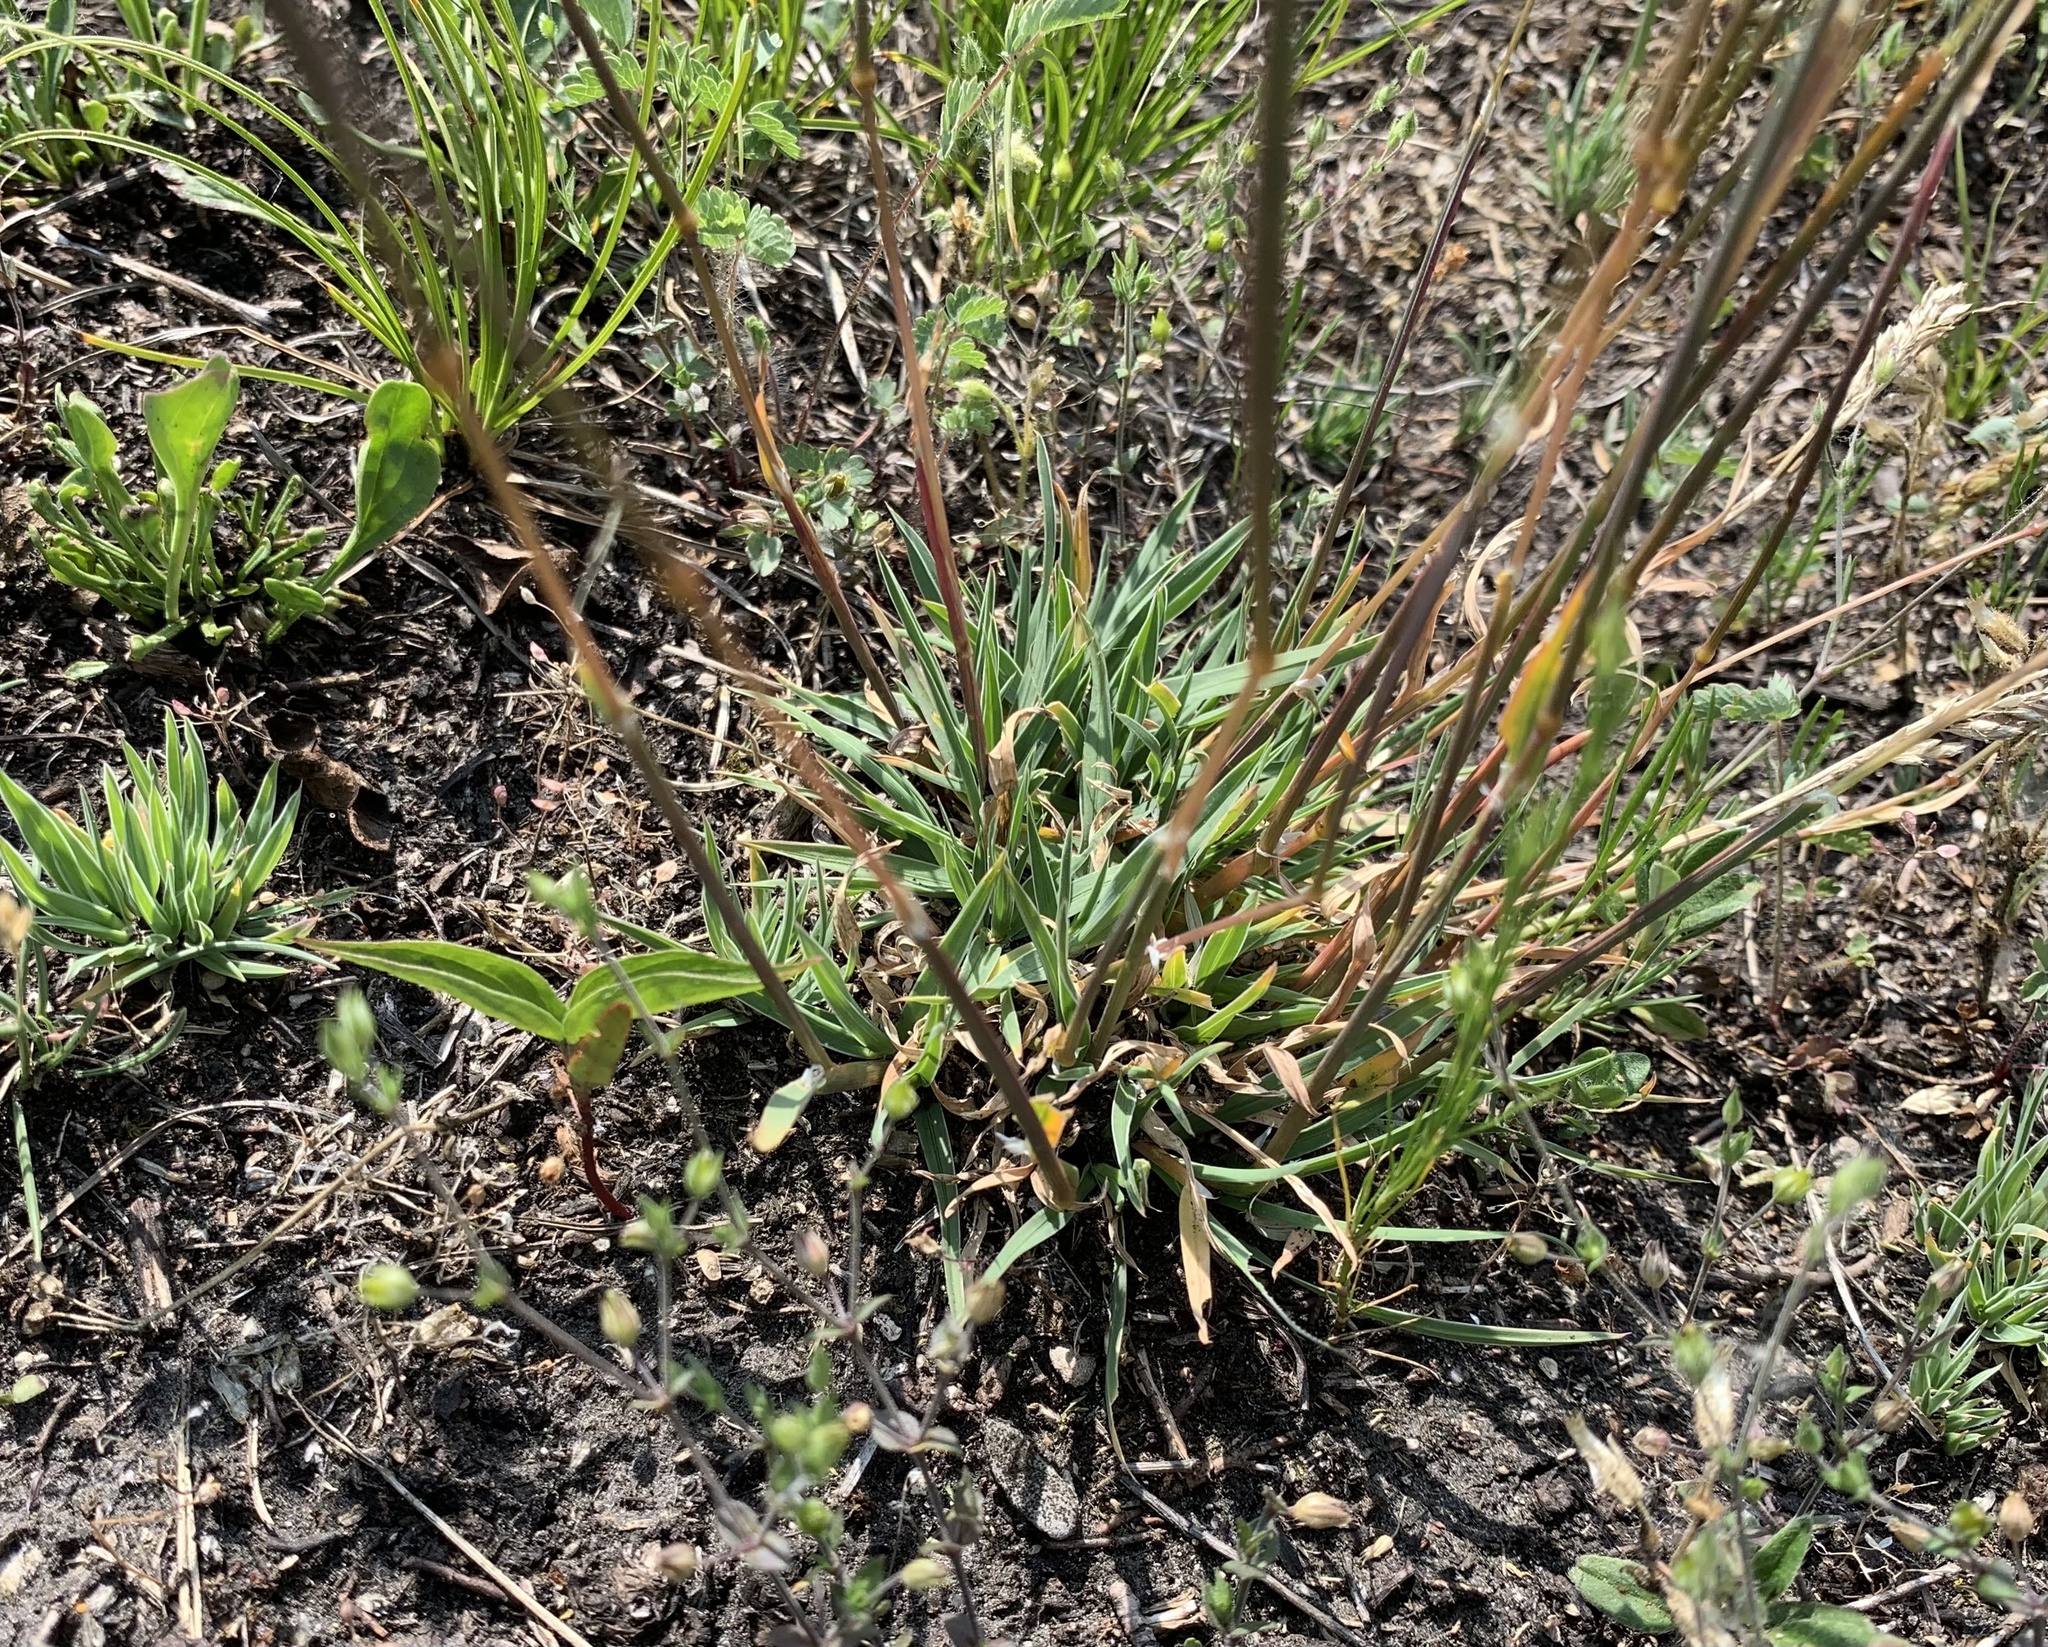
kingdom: Plantae
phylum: Tracheophyta
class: Liliopsida
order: Poales
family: Poaceae
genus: Poa
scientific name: Poa badensis
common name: Baden's bluegrass
